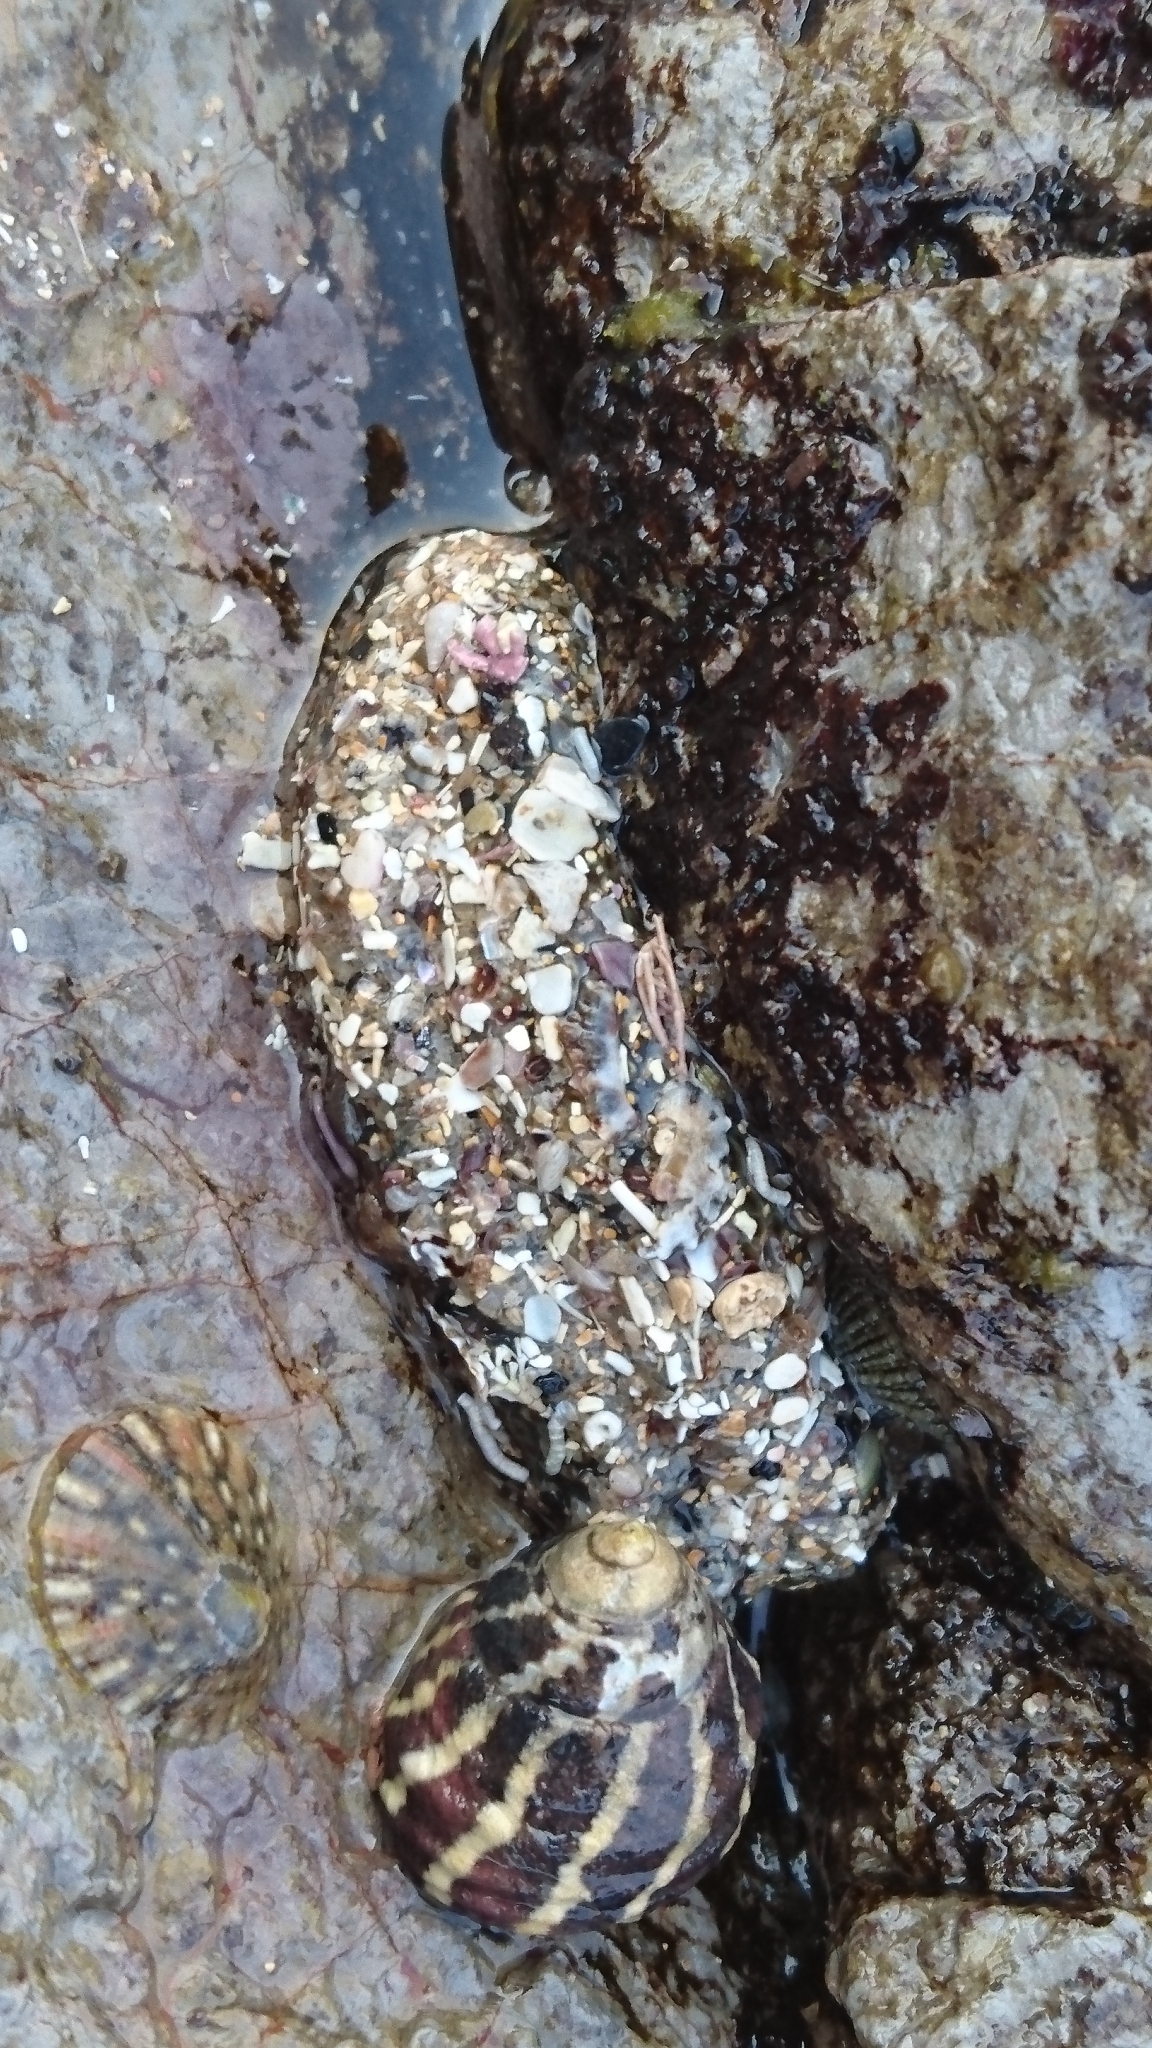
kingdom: Animalia
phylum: Mollusca
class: Gastropoda
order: Trochida
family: Trochidae
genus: Austrocochlea
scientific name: Austrocochlea porcata
